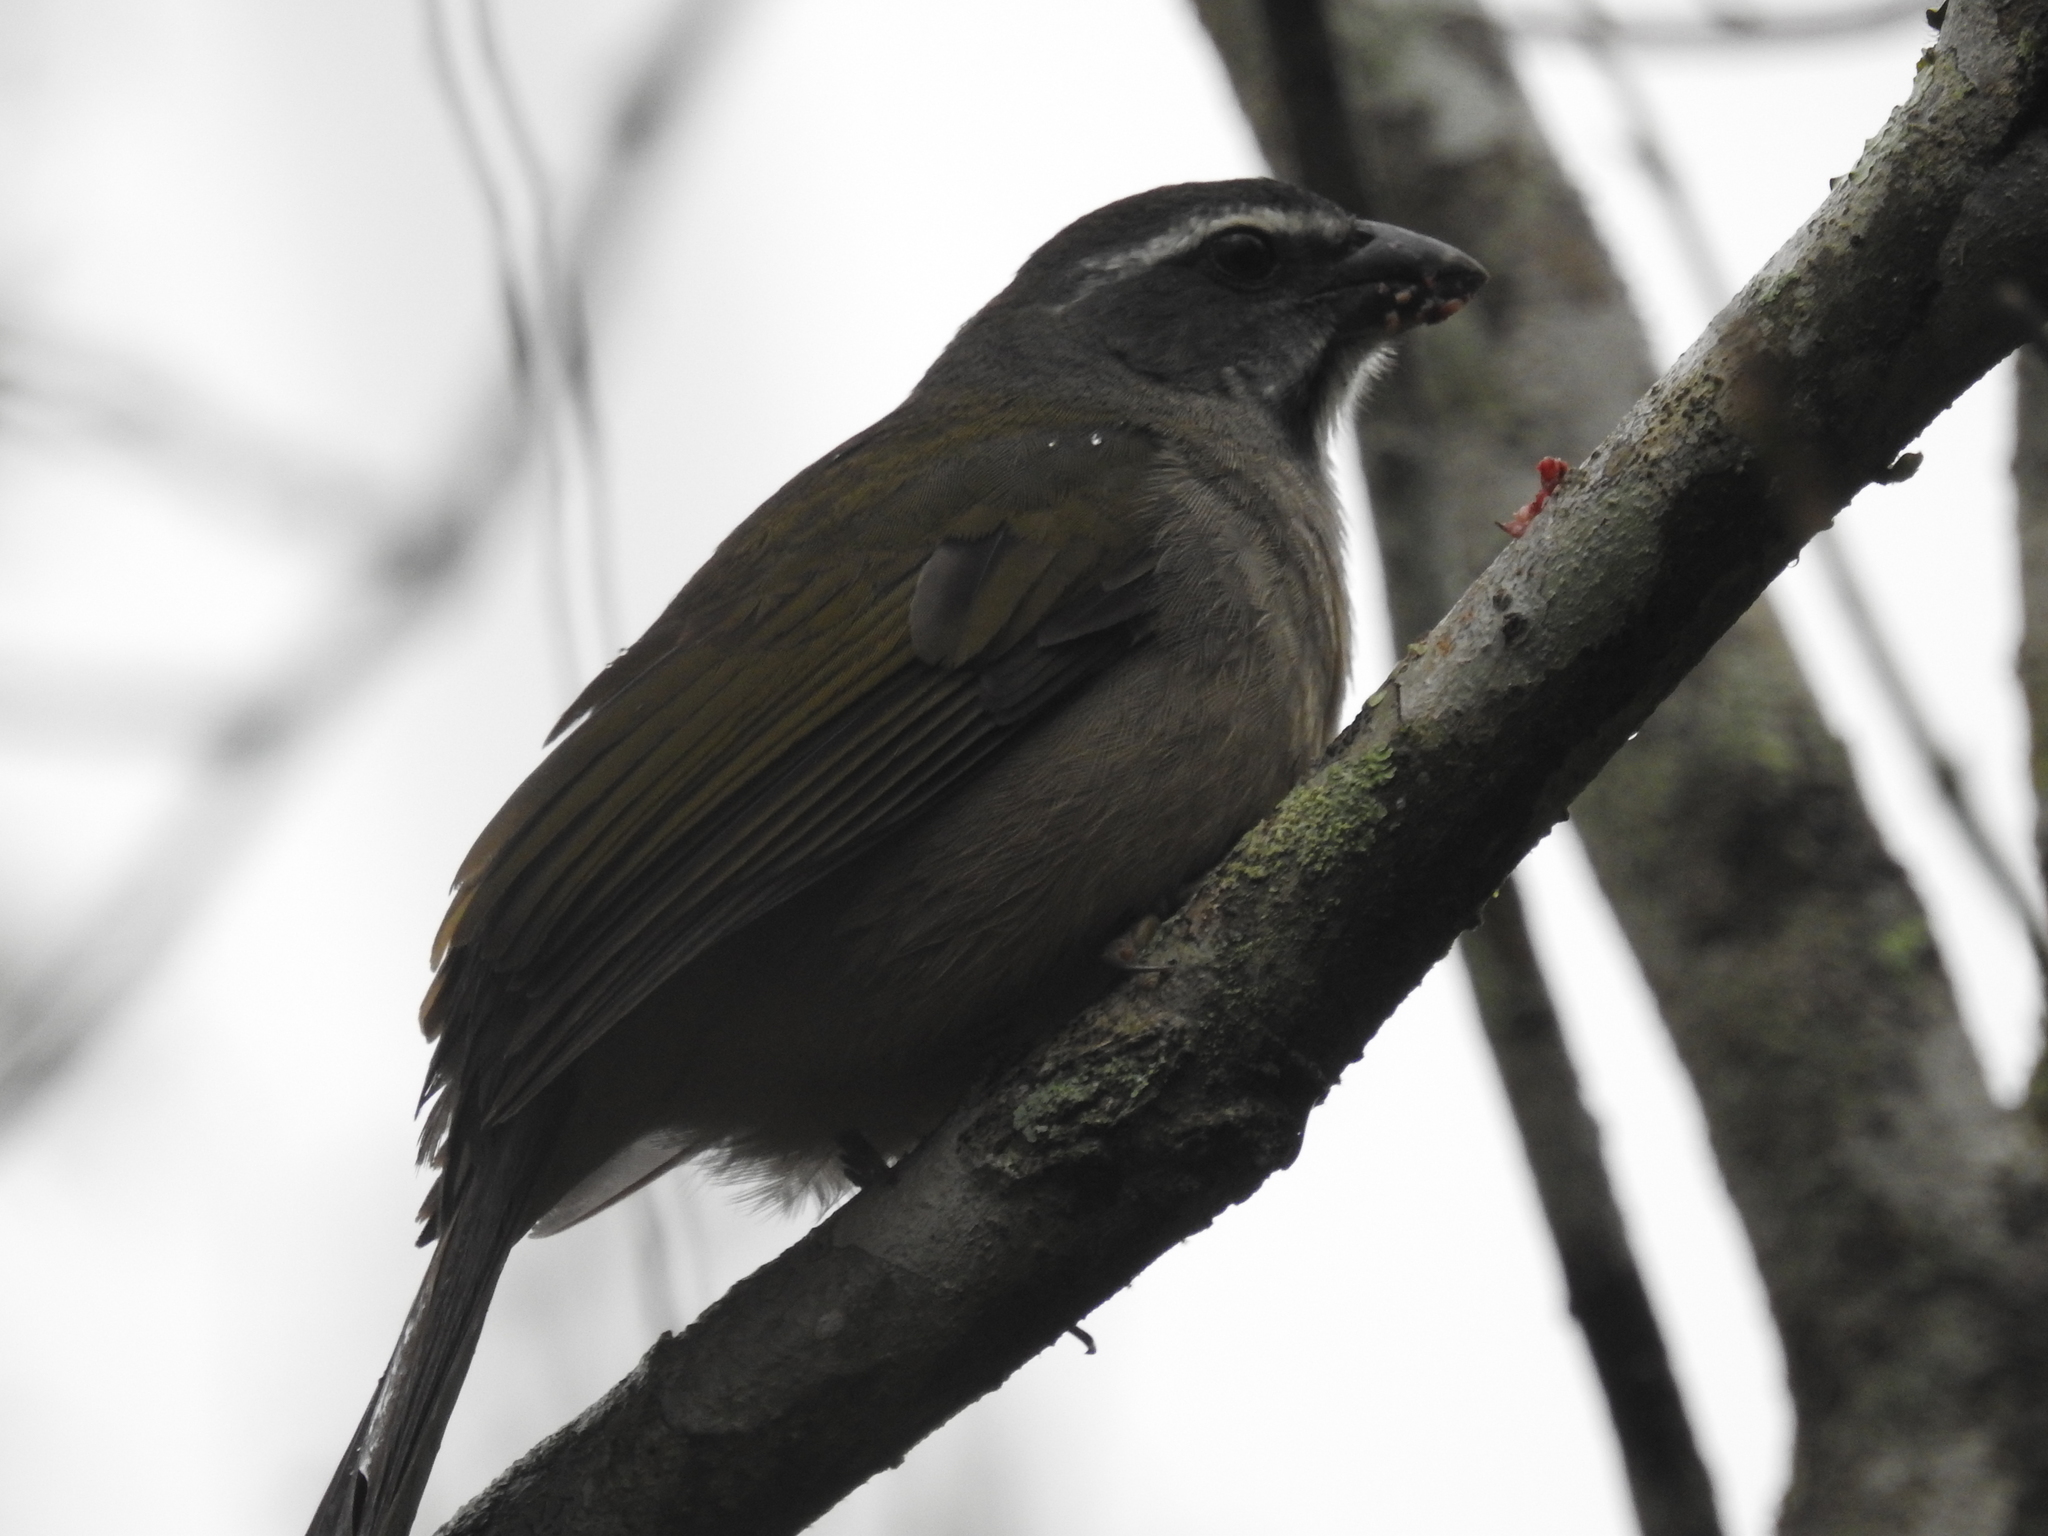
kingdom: Animalia
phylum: Chordata
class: Aves
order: Passeriformes
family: Thraupidae
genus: Saltator
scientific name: Saltator similis
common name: Green-winged saltator
